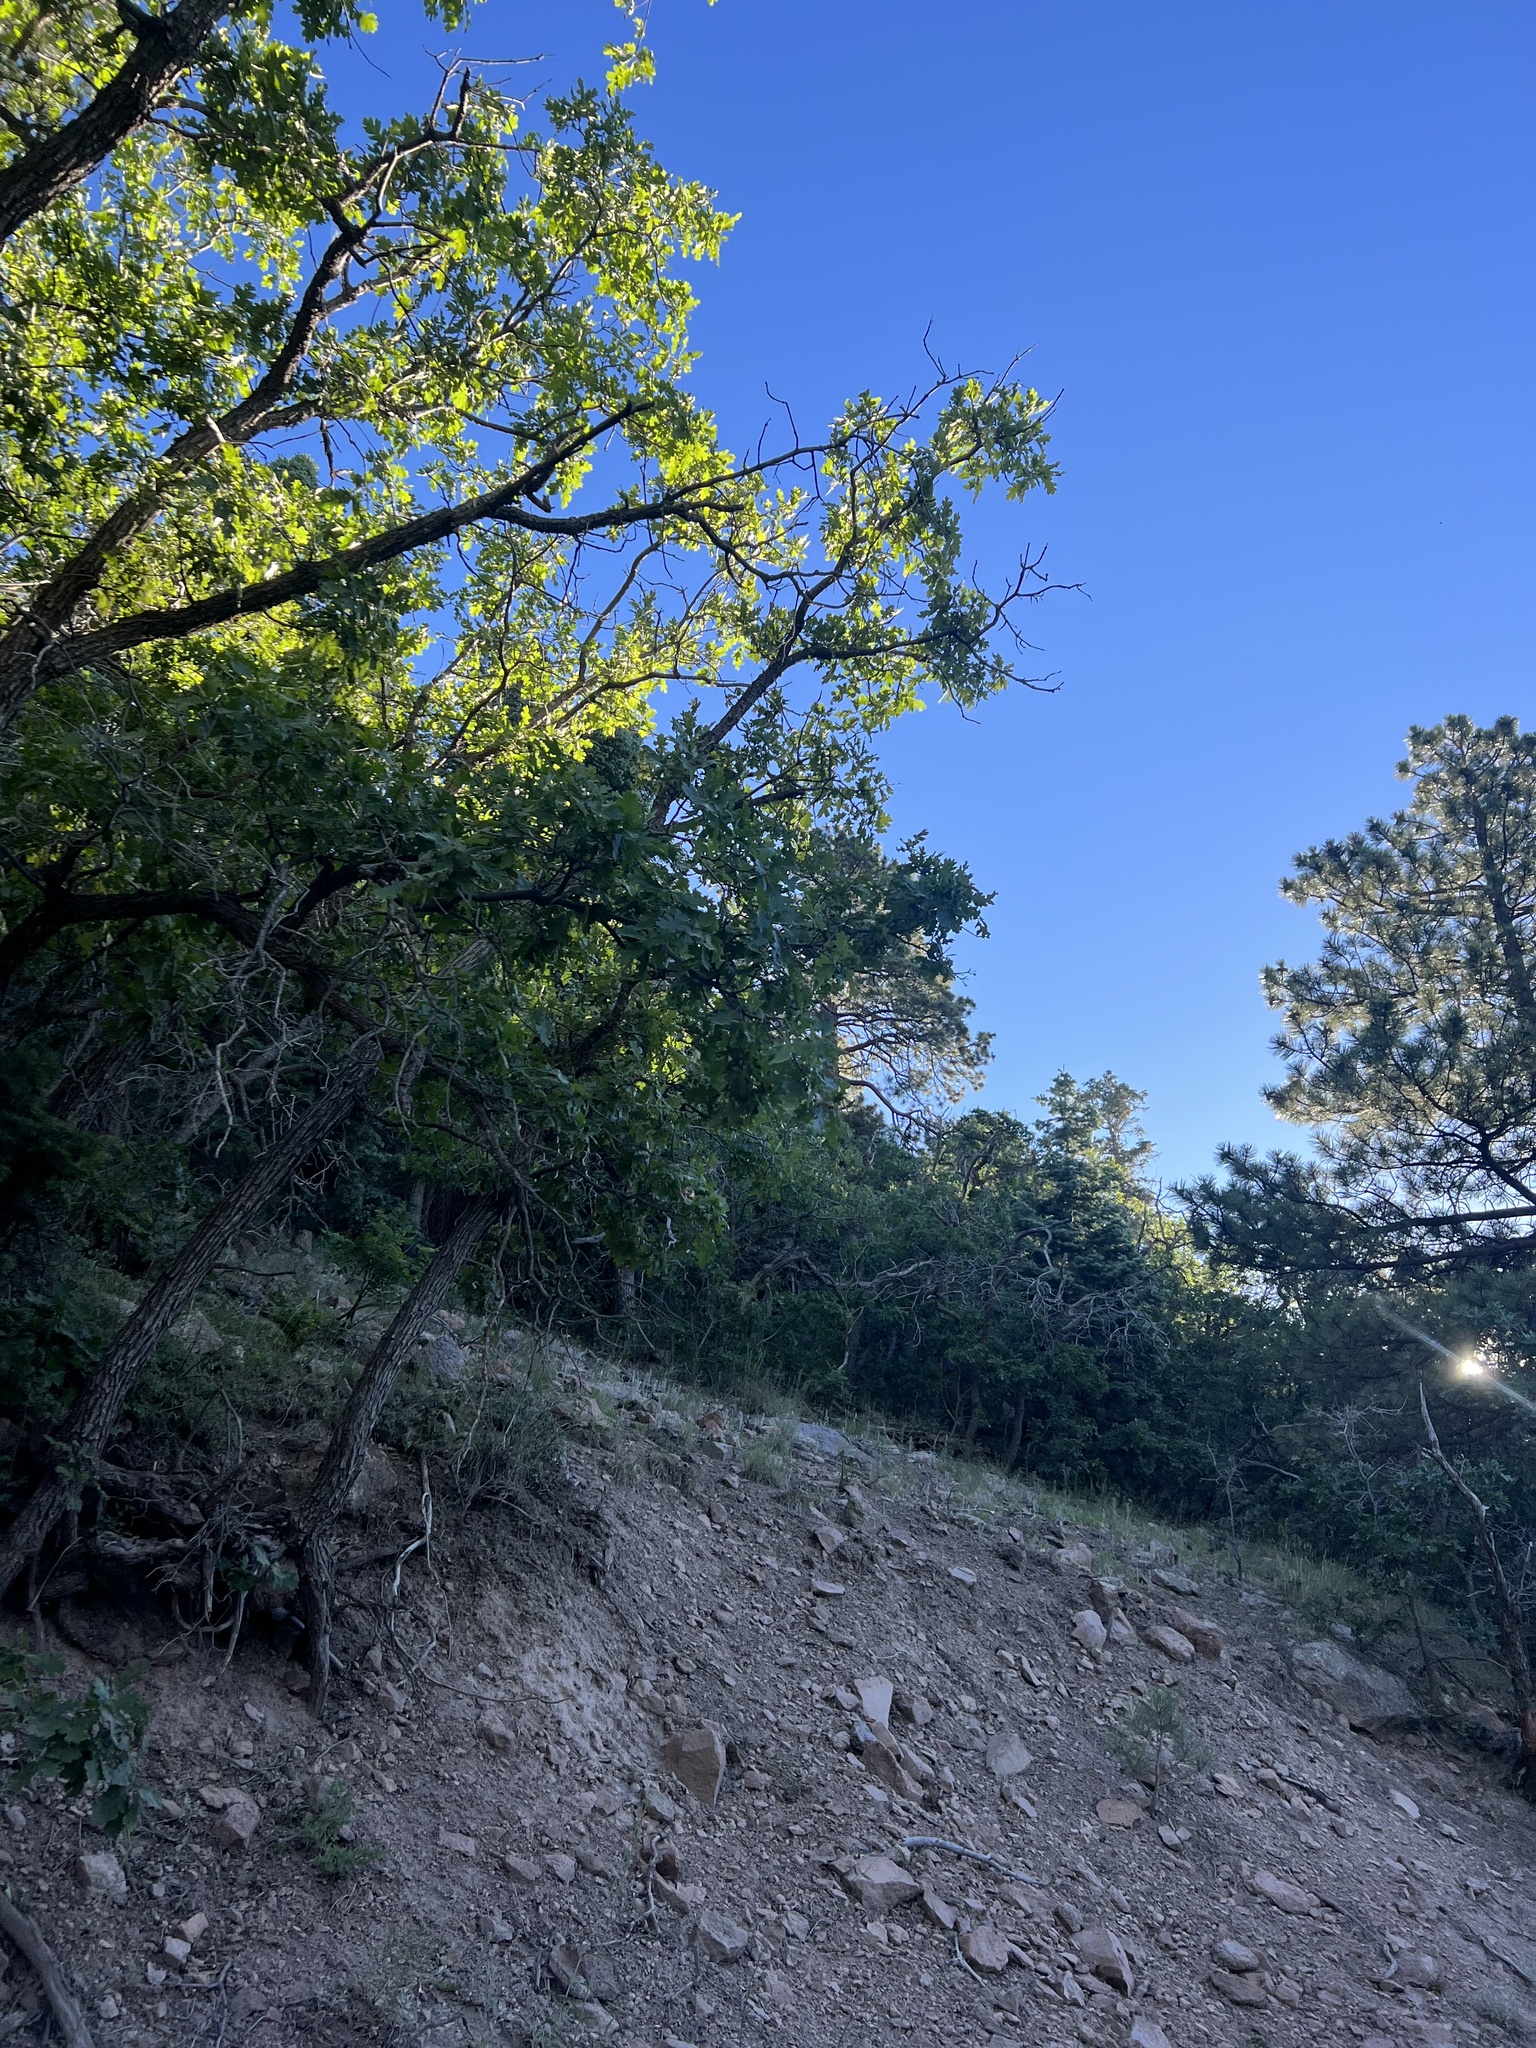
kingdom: Plantae
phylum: Tracheophyta
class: Magnoliopsida
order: Fagales
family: Fagaceae
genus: Quercus
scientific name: Quercus gambelii
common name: Gambel oak
